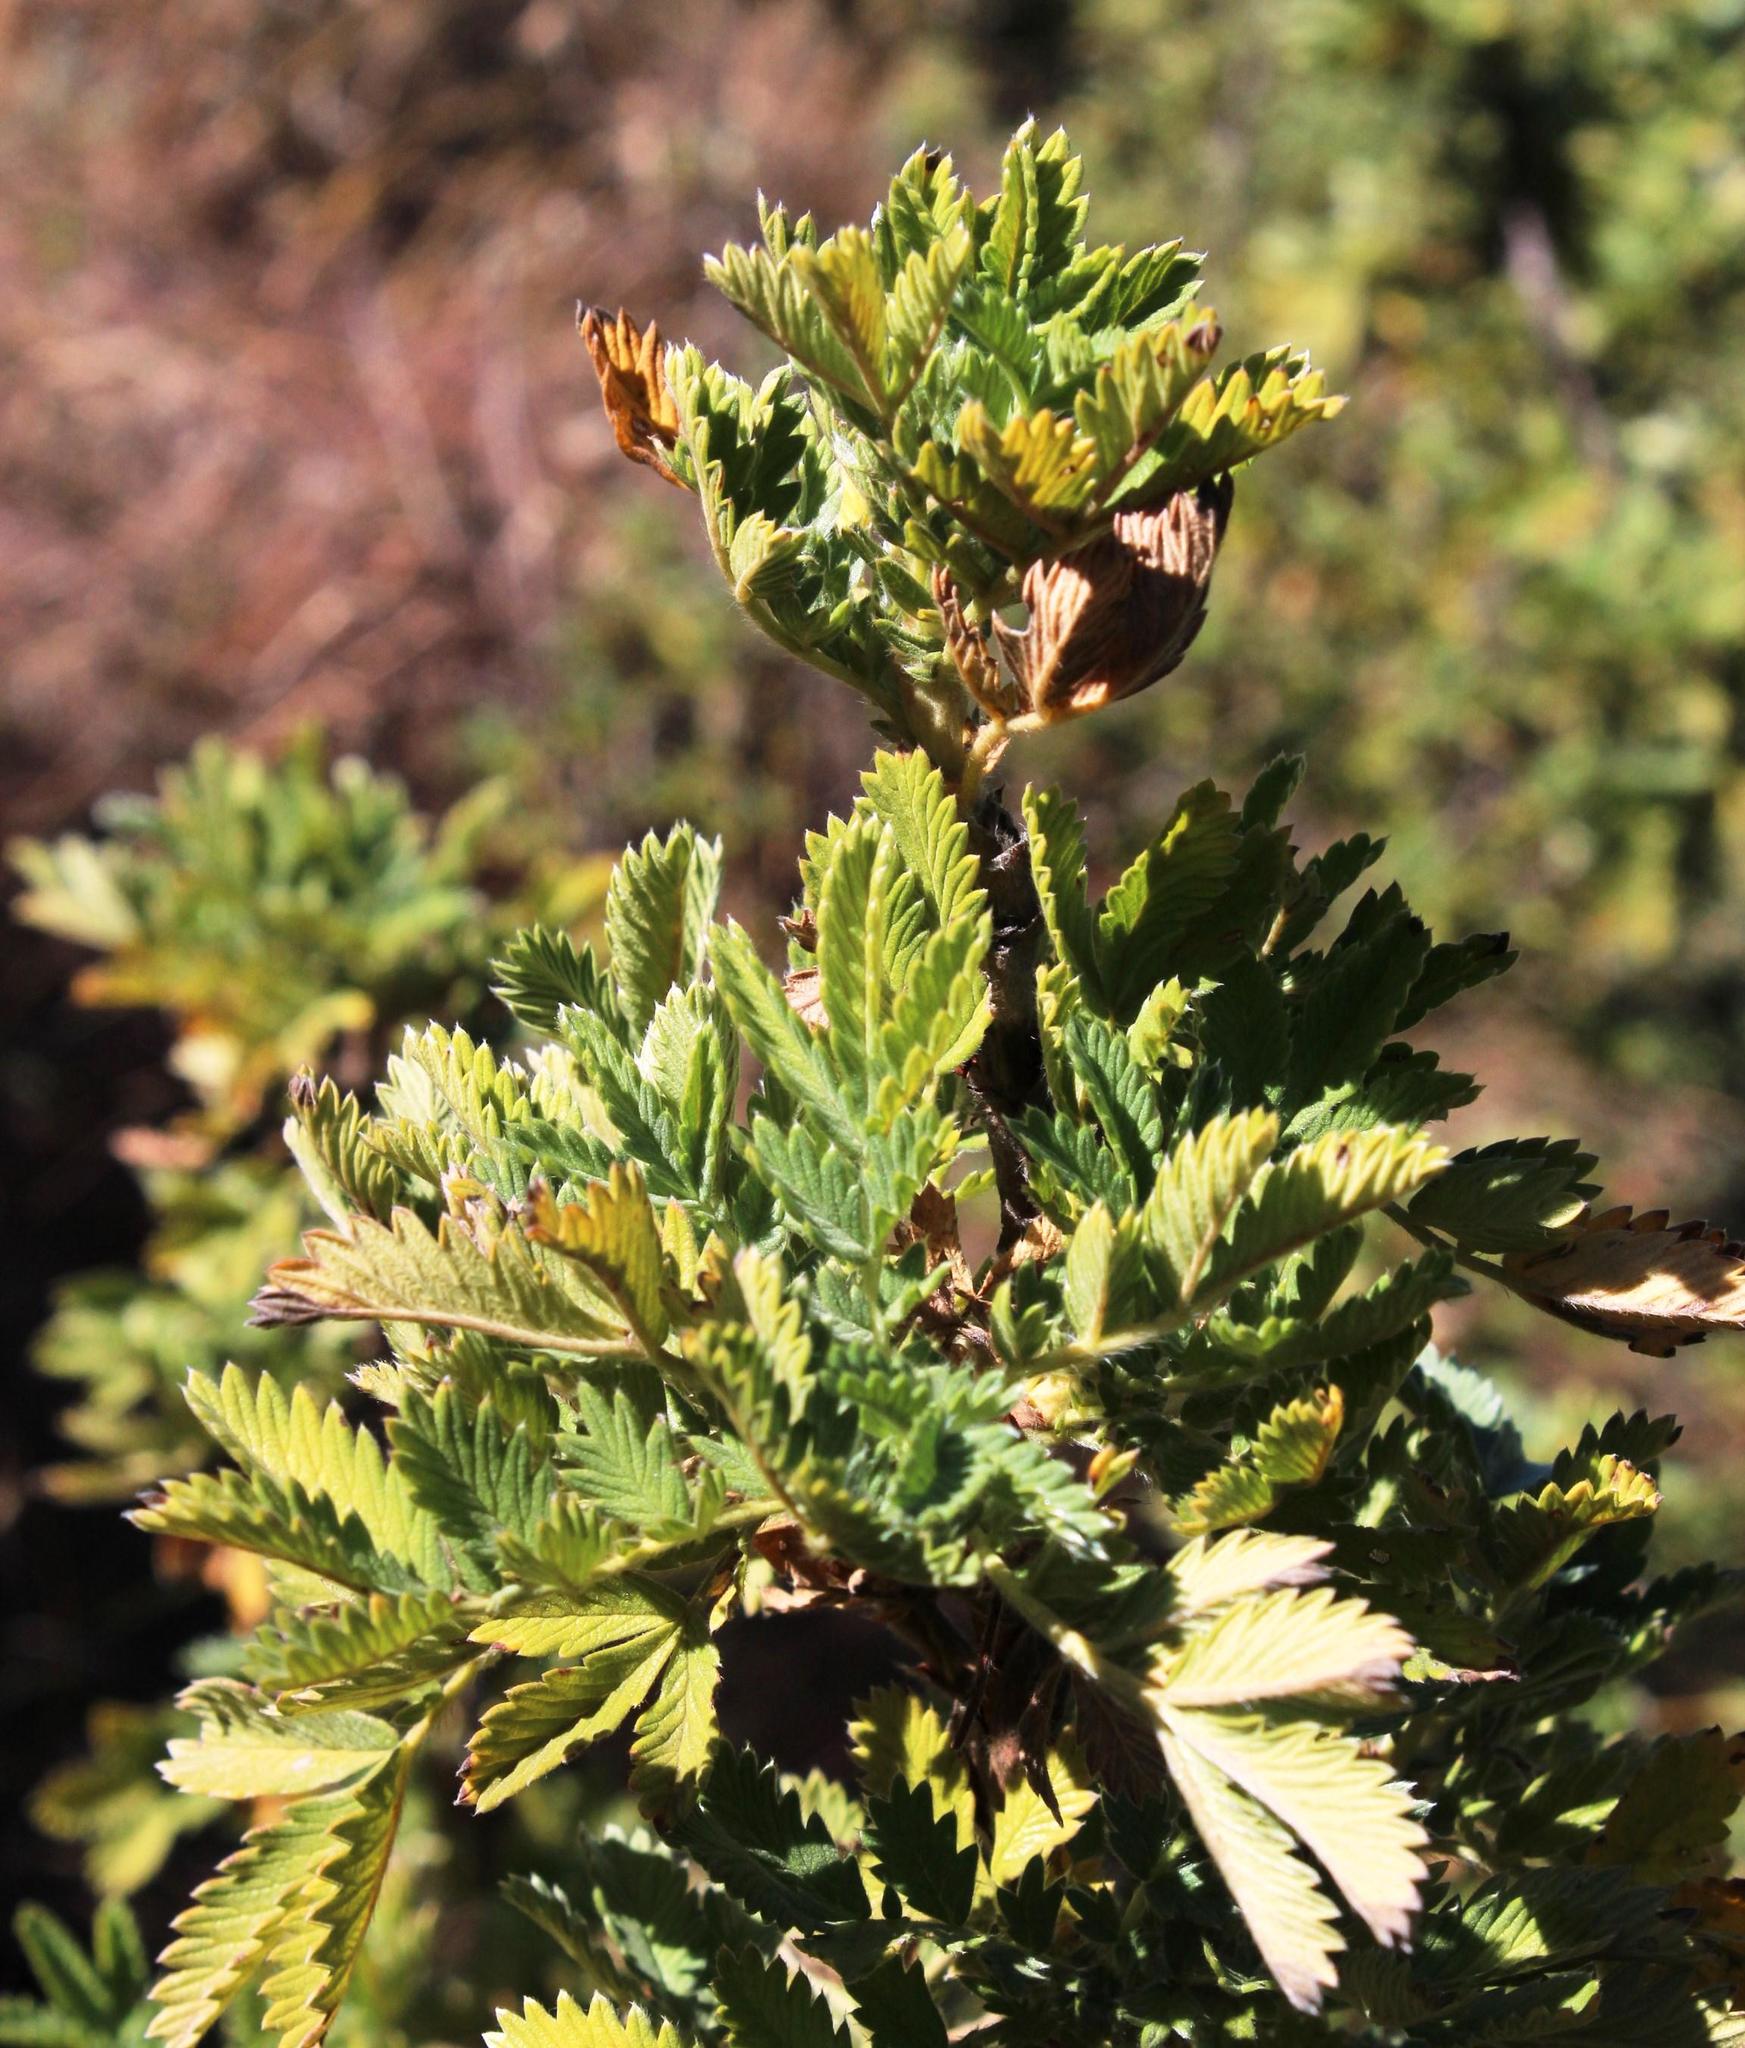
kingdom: Plantae
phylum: Tracheophyta
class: Magnoliopsida
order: Rosales
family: Rosaceae
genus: Leucosidea
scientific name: Leucosidea sericea
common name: Oldwood
